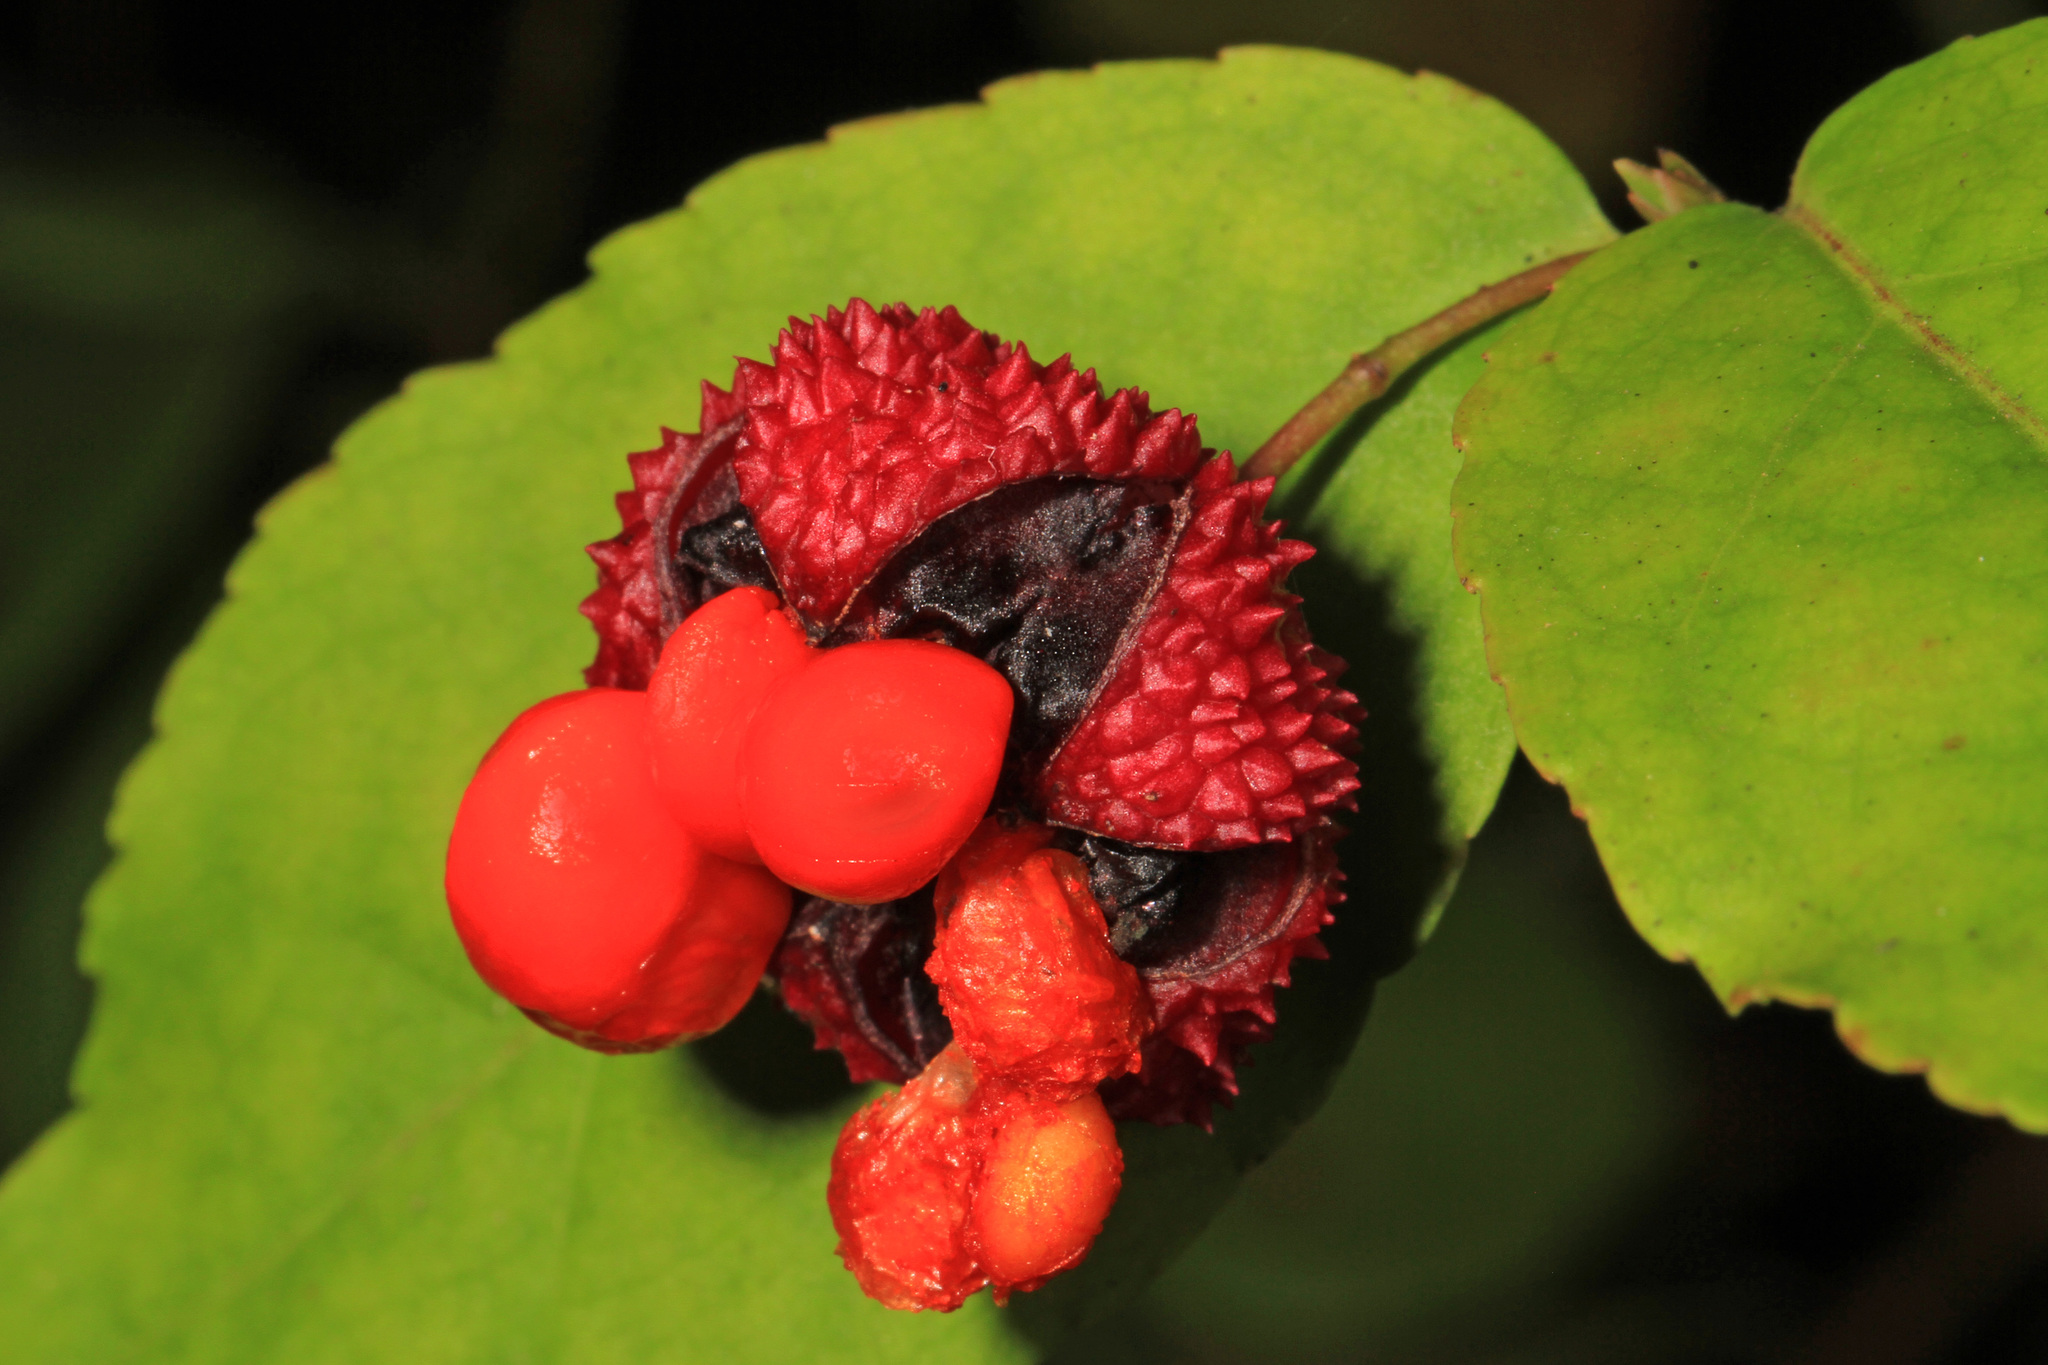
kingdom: Plantae
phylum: Tracheophyta
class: Magnoliopsida
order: Celastrales
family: Celastraceae
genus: Euonymus
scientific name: Euonymus americanus
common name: Bursting-heart
